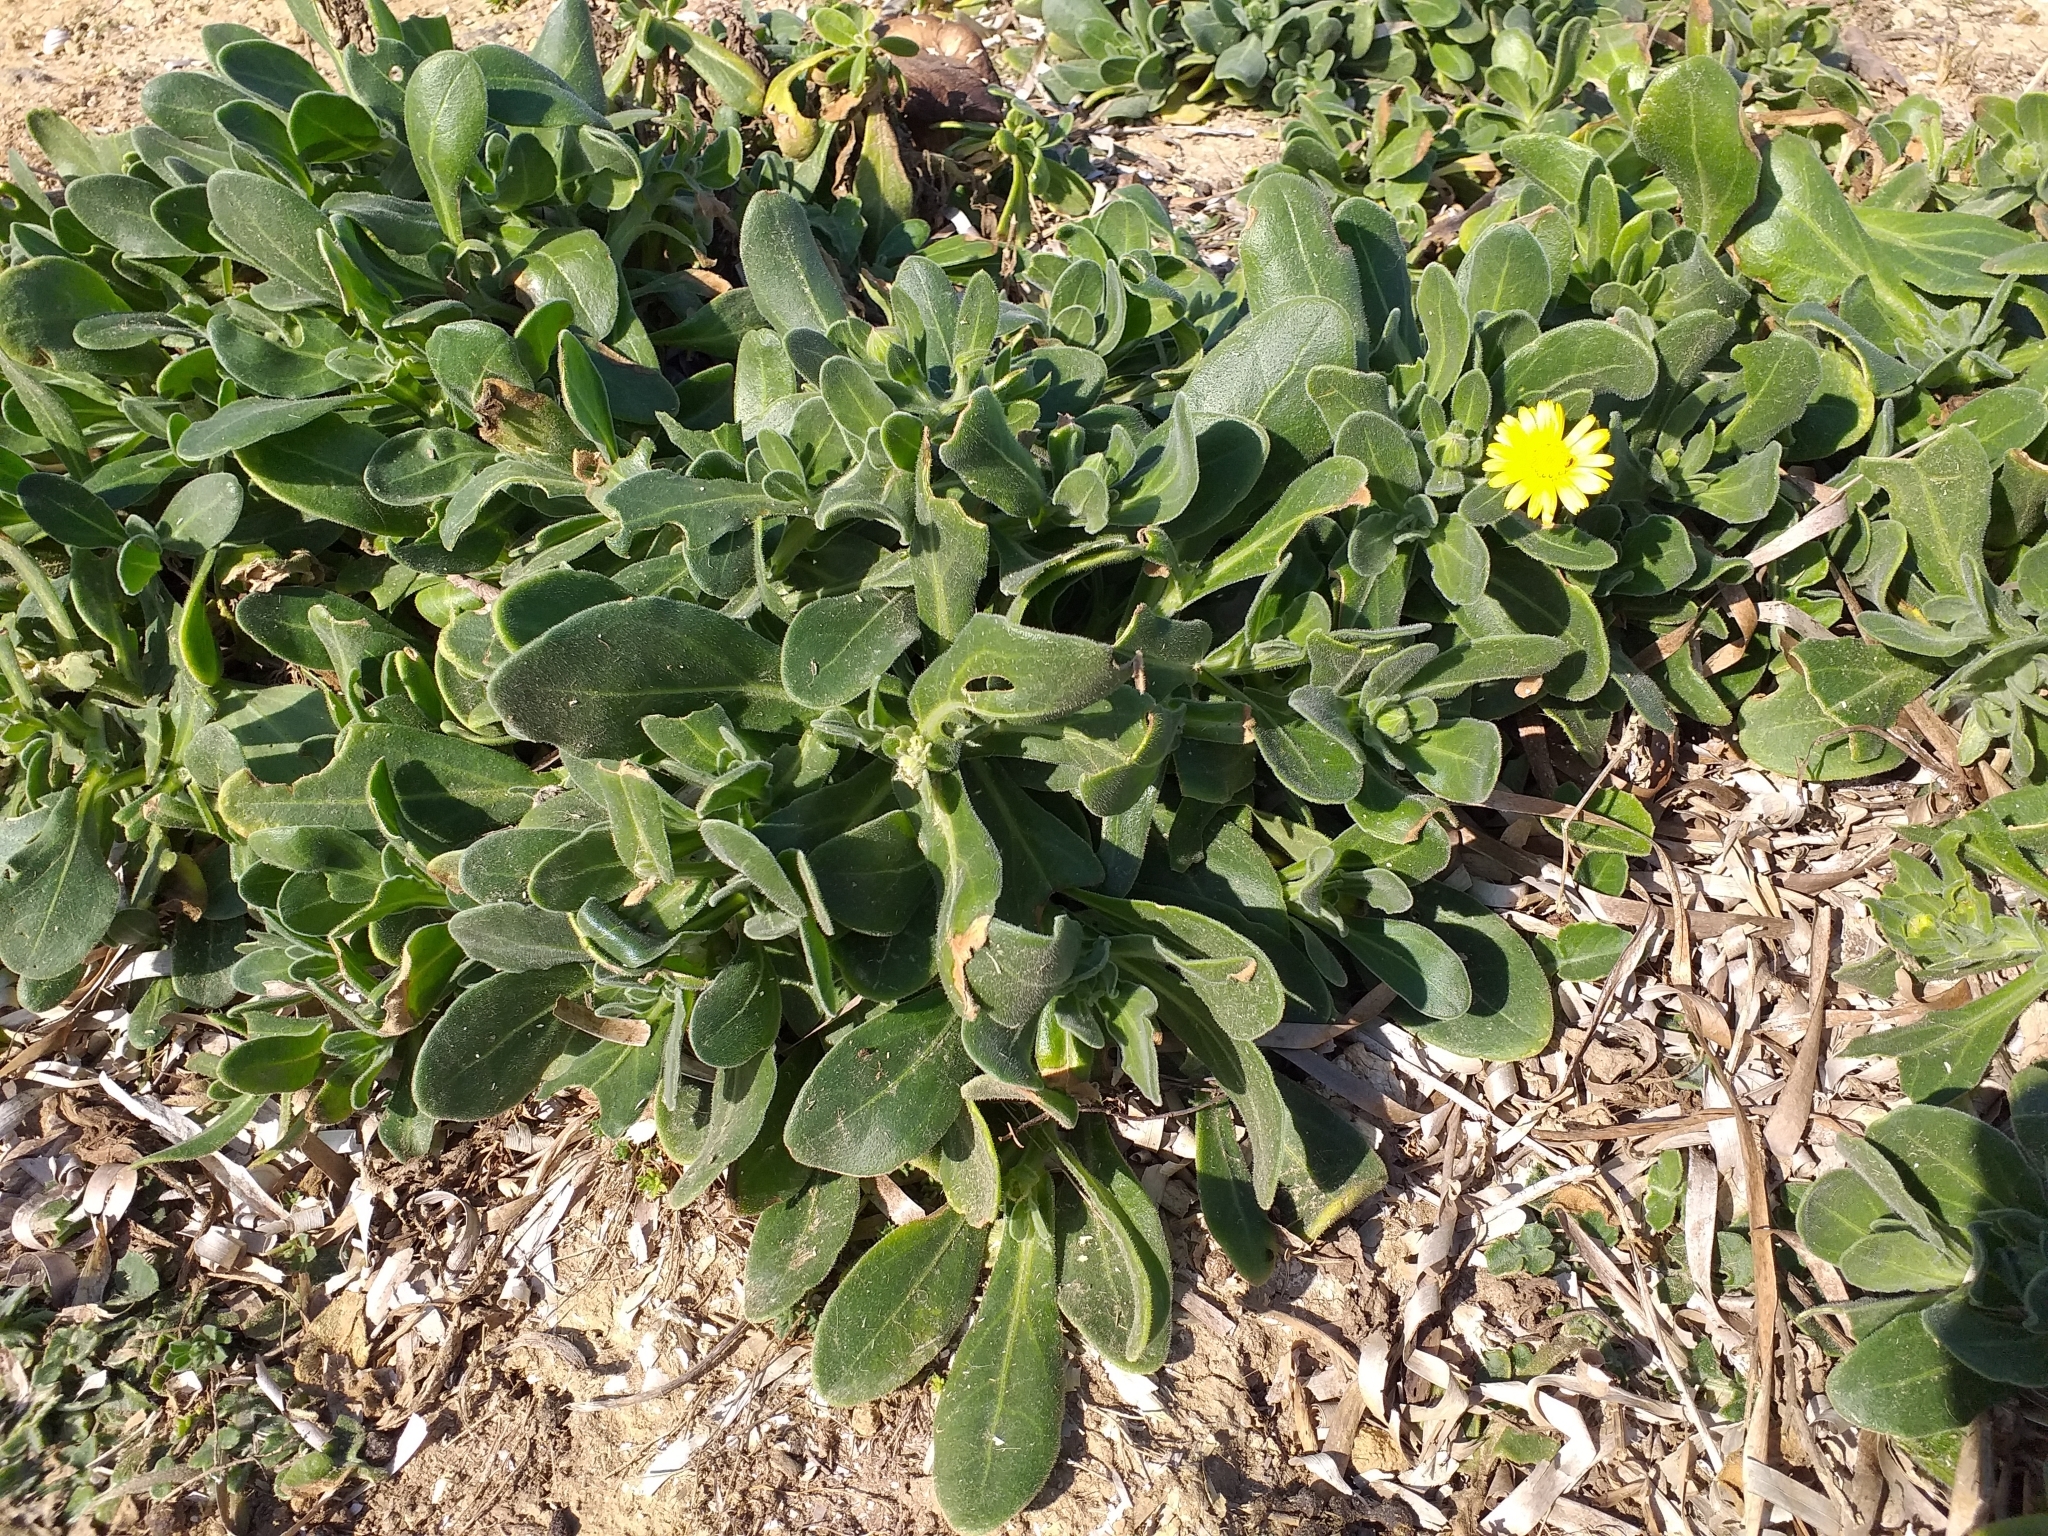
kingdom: Plantae
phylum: Tracheophyta
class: Magnoliopsida
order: Asterales
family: Asteraceae
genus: Calendula
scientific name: Calendula suffruticosa
